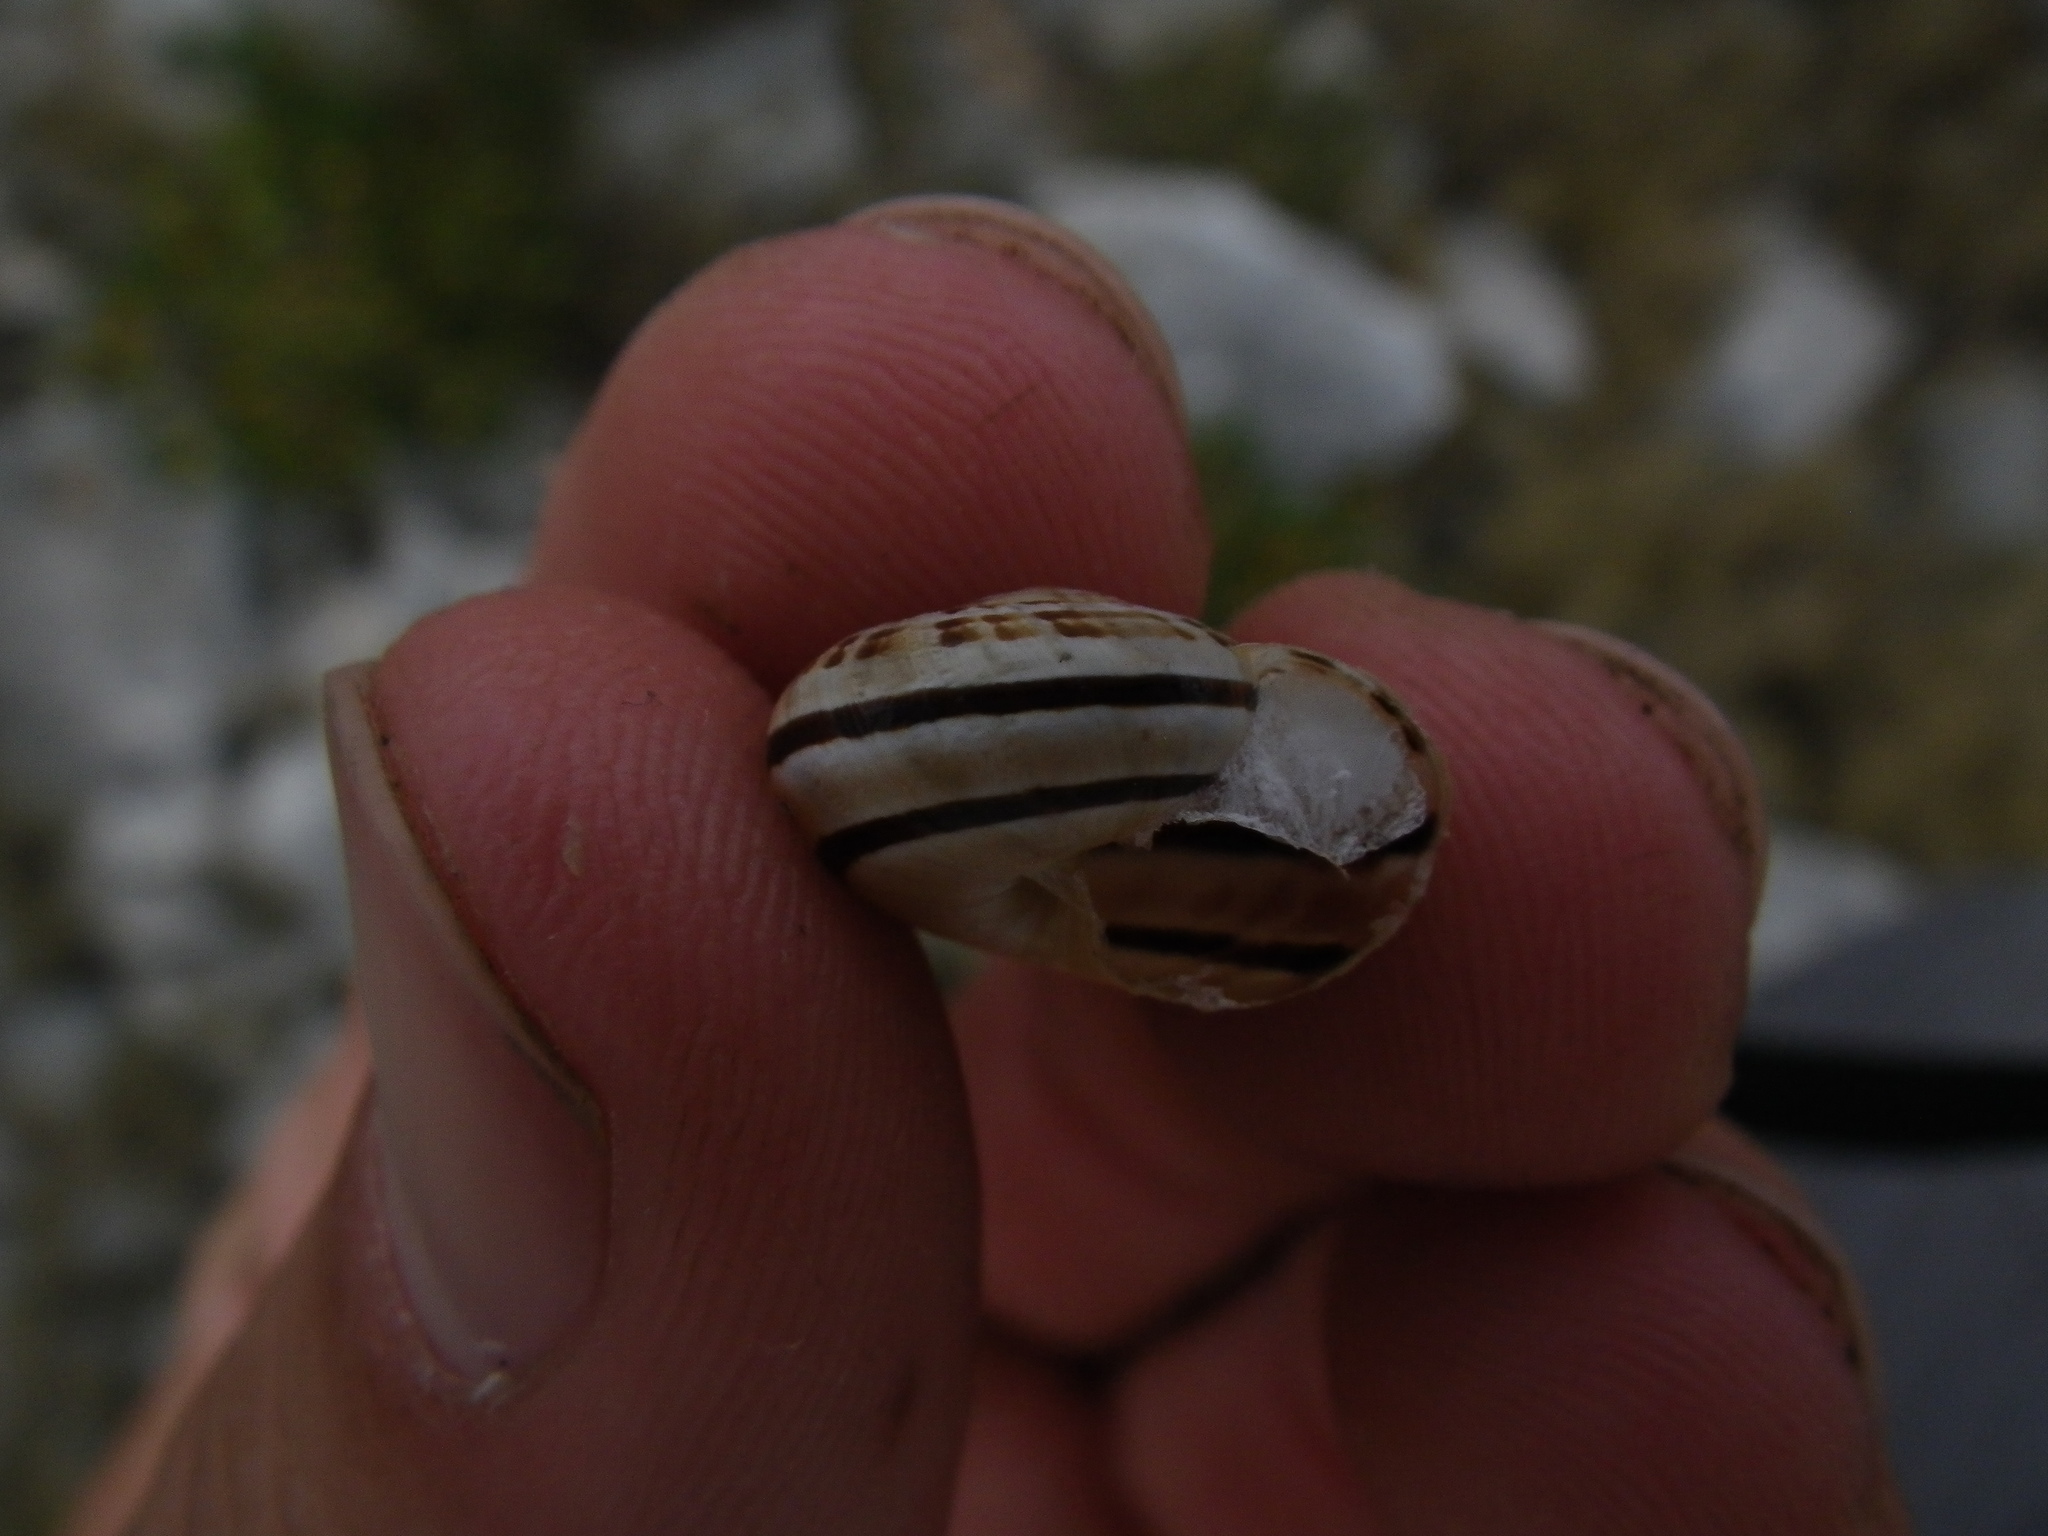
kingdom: Animalia
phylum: Mollusca
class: Gastropoda
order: Stylommatophora
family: Helicidae
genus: Pseudotachea
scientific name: Pseudotachea splendida
